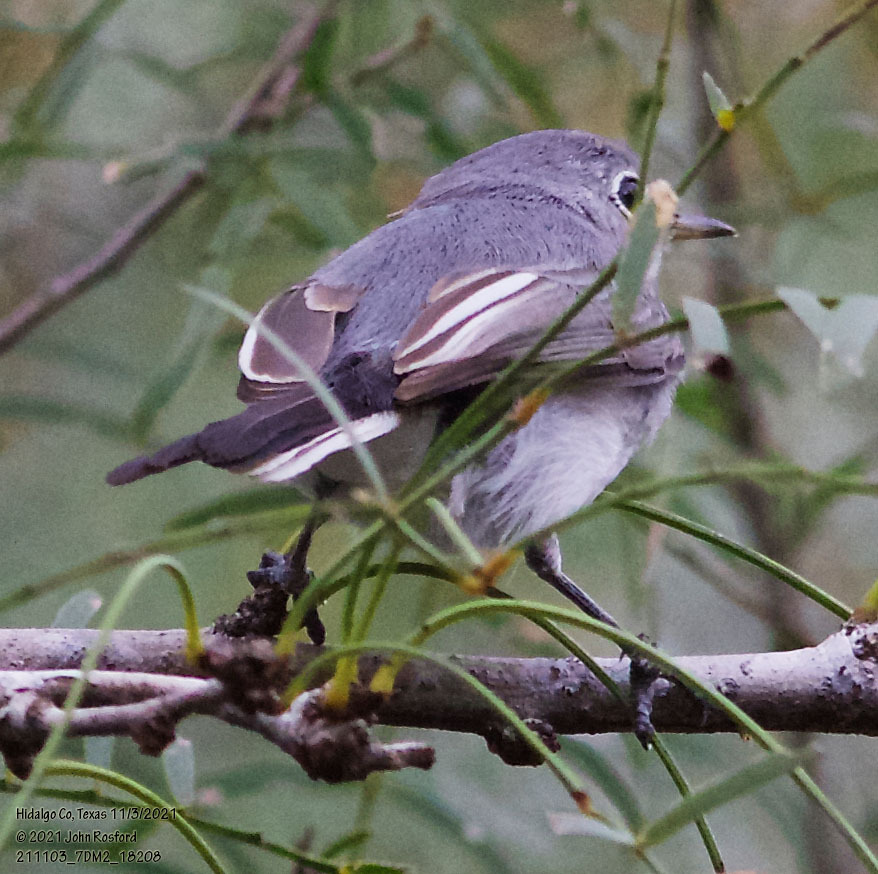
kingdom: Animalia
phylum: Chordata
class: Aves
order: Passeriformes
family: Polioptilidae
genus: Polioptila
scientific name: Polioptila caerulea
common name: Blue-gray gnatcatcher
